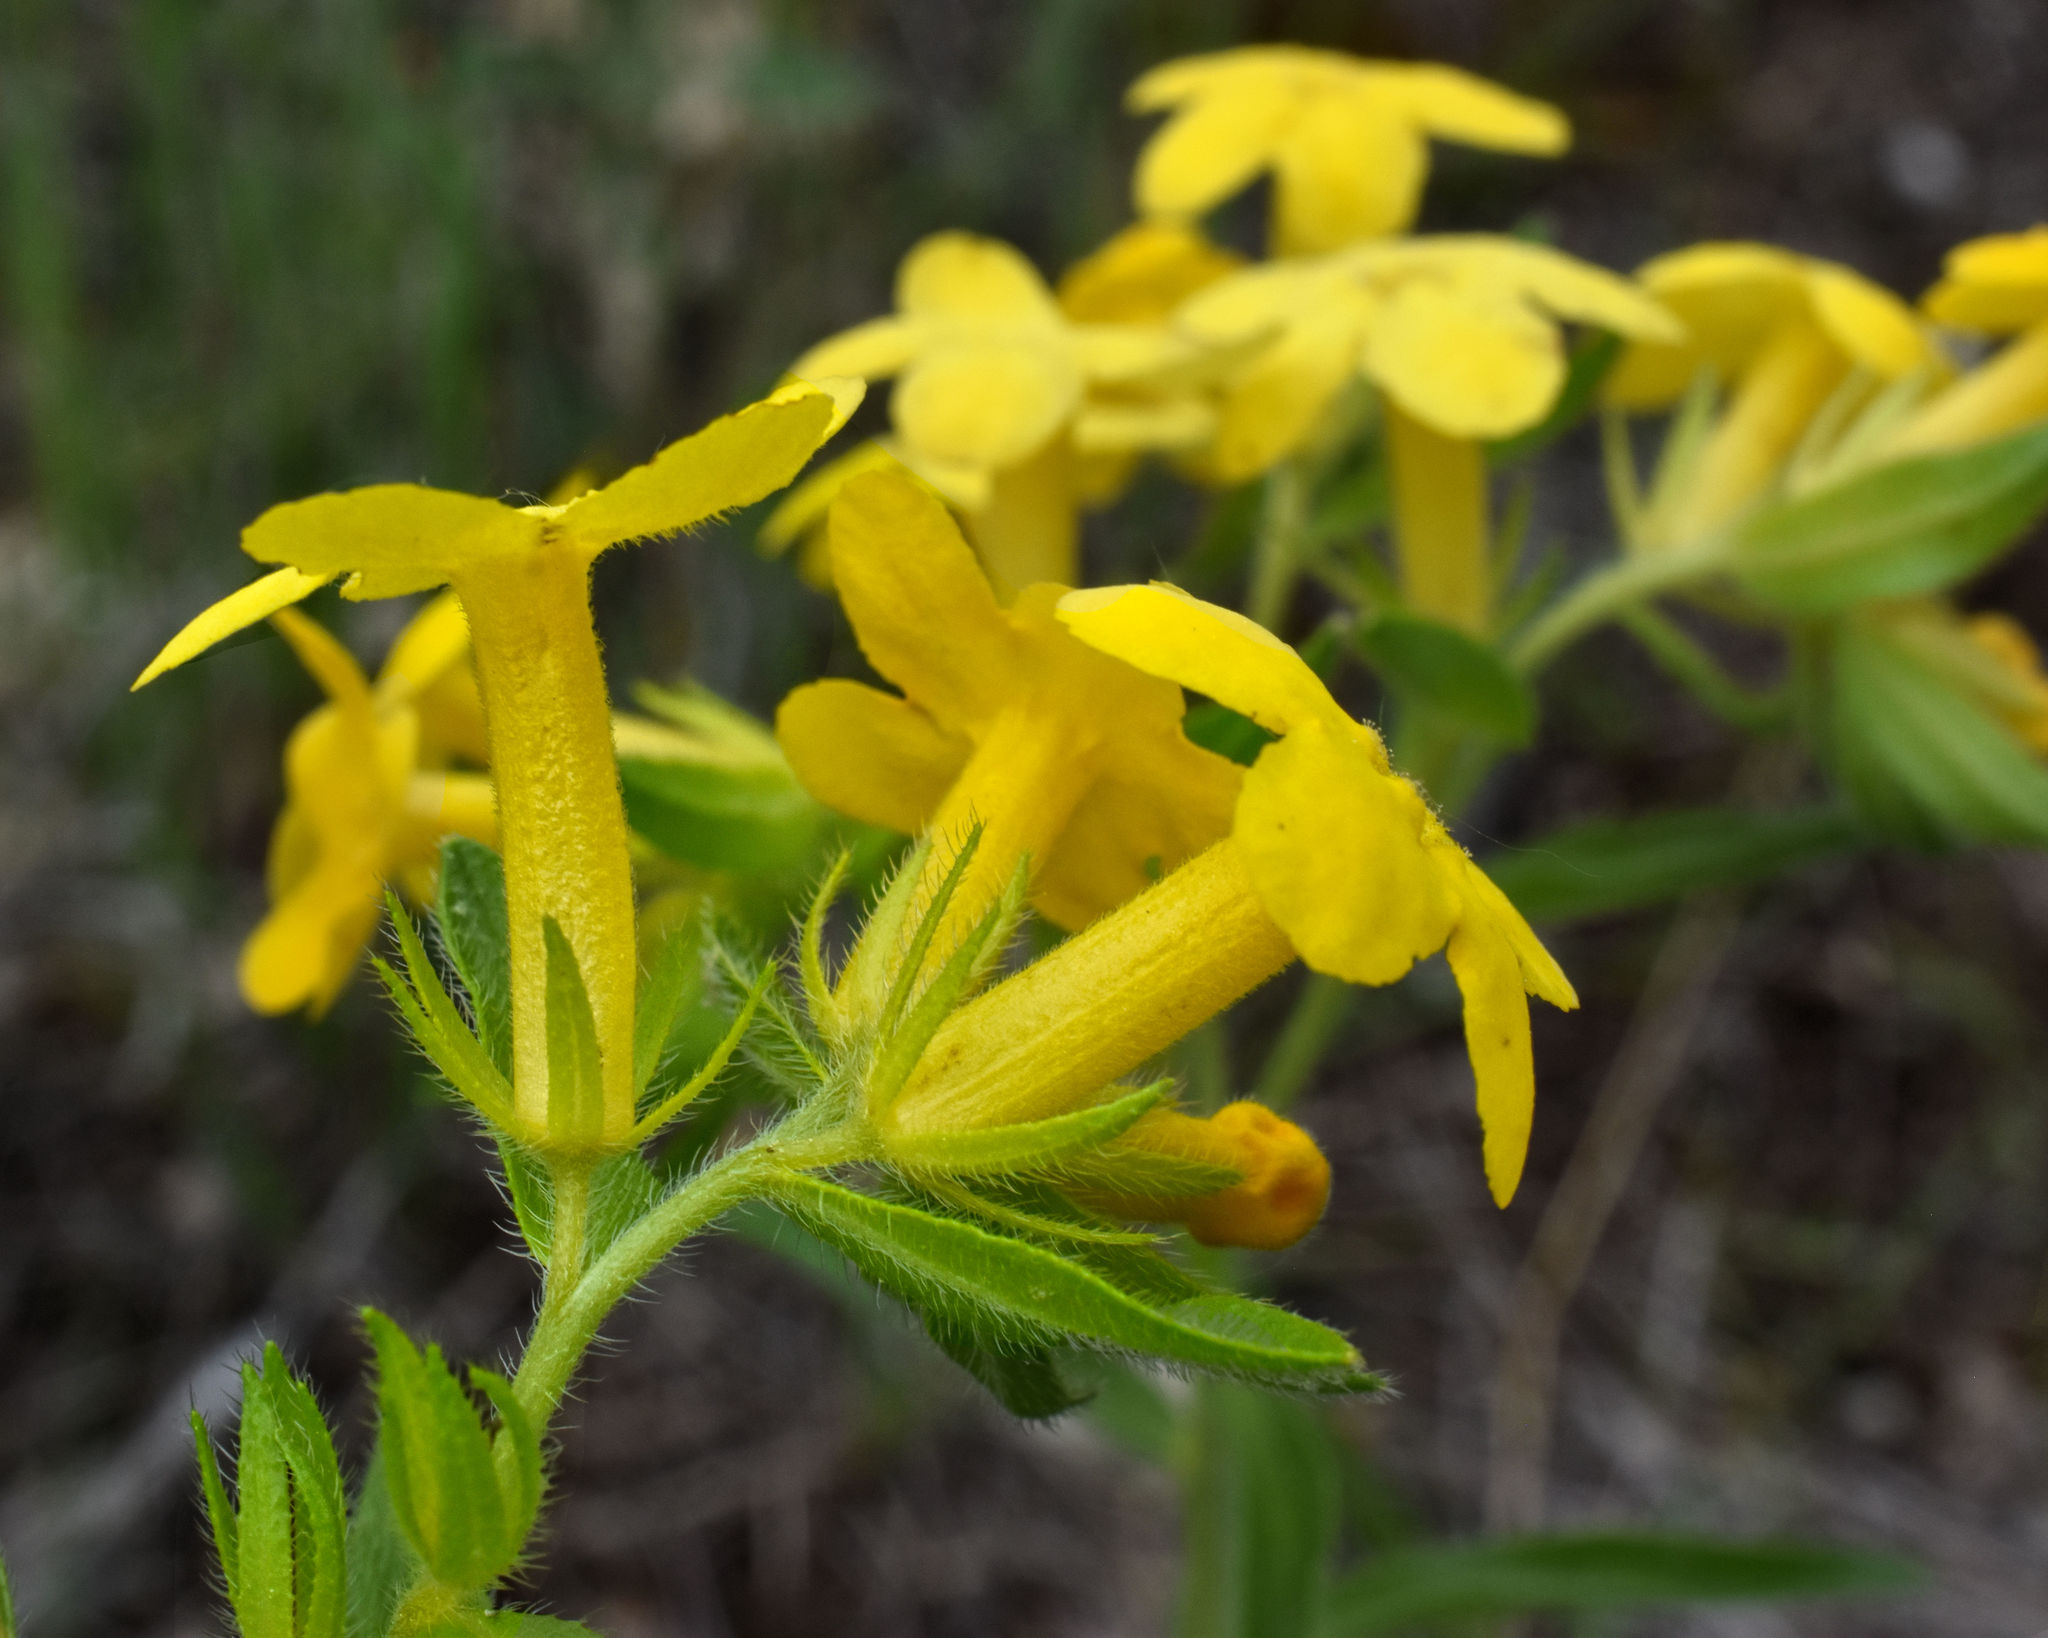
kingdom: Plantae
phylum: Tracheophyta
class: Magnoliopsida
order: Boraginales
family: Boraginaceae
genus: Lithospermum
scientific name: Lithospermum caroliniense
